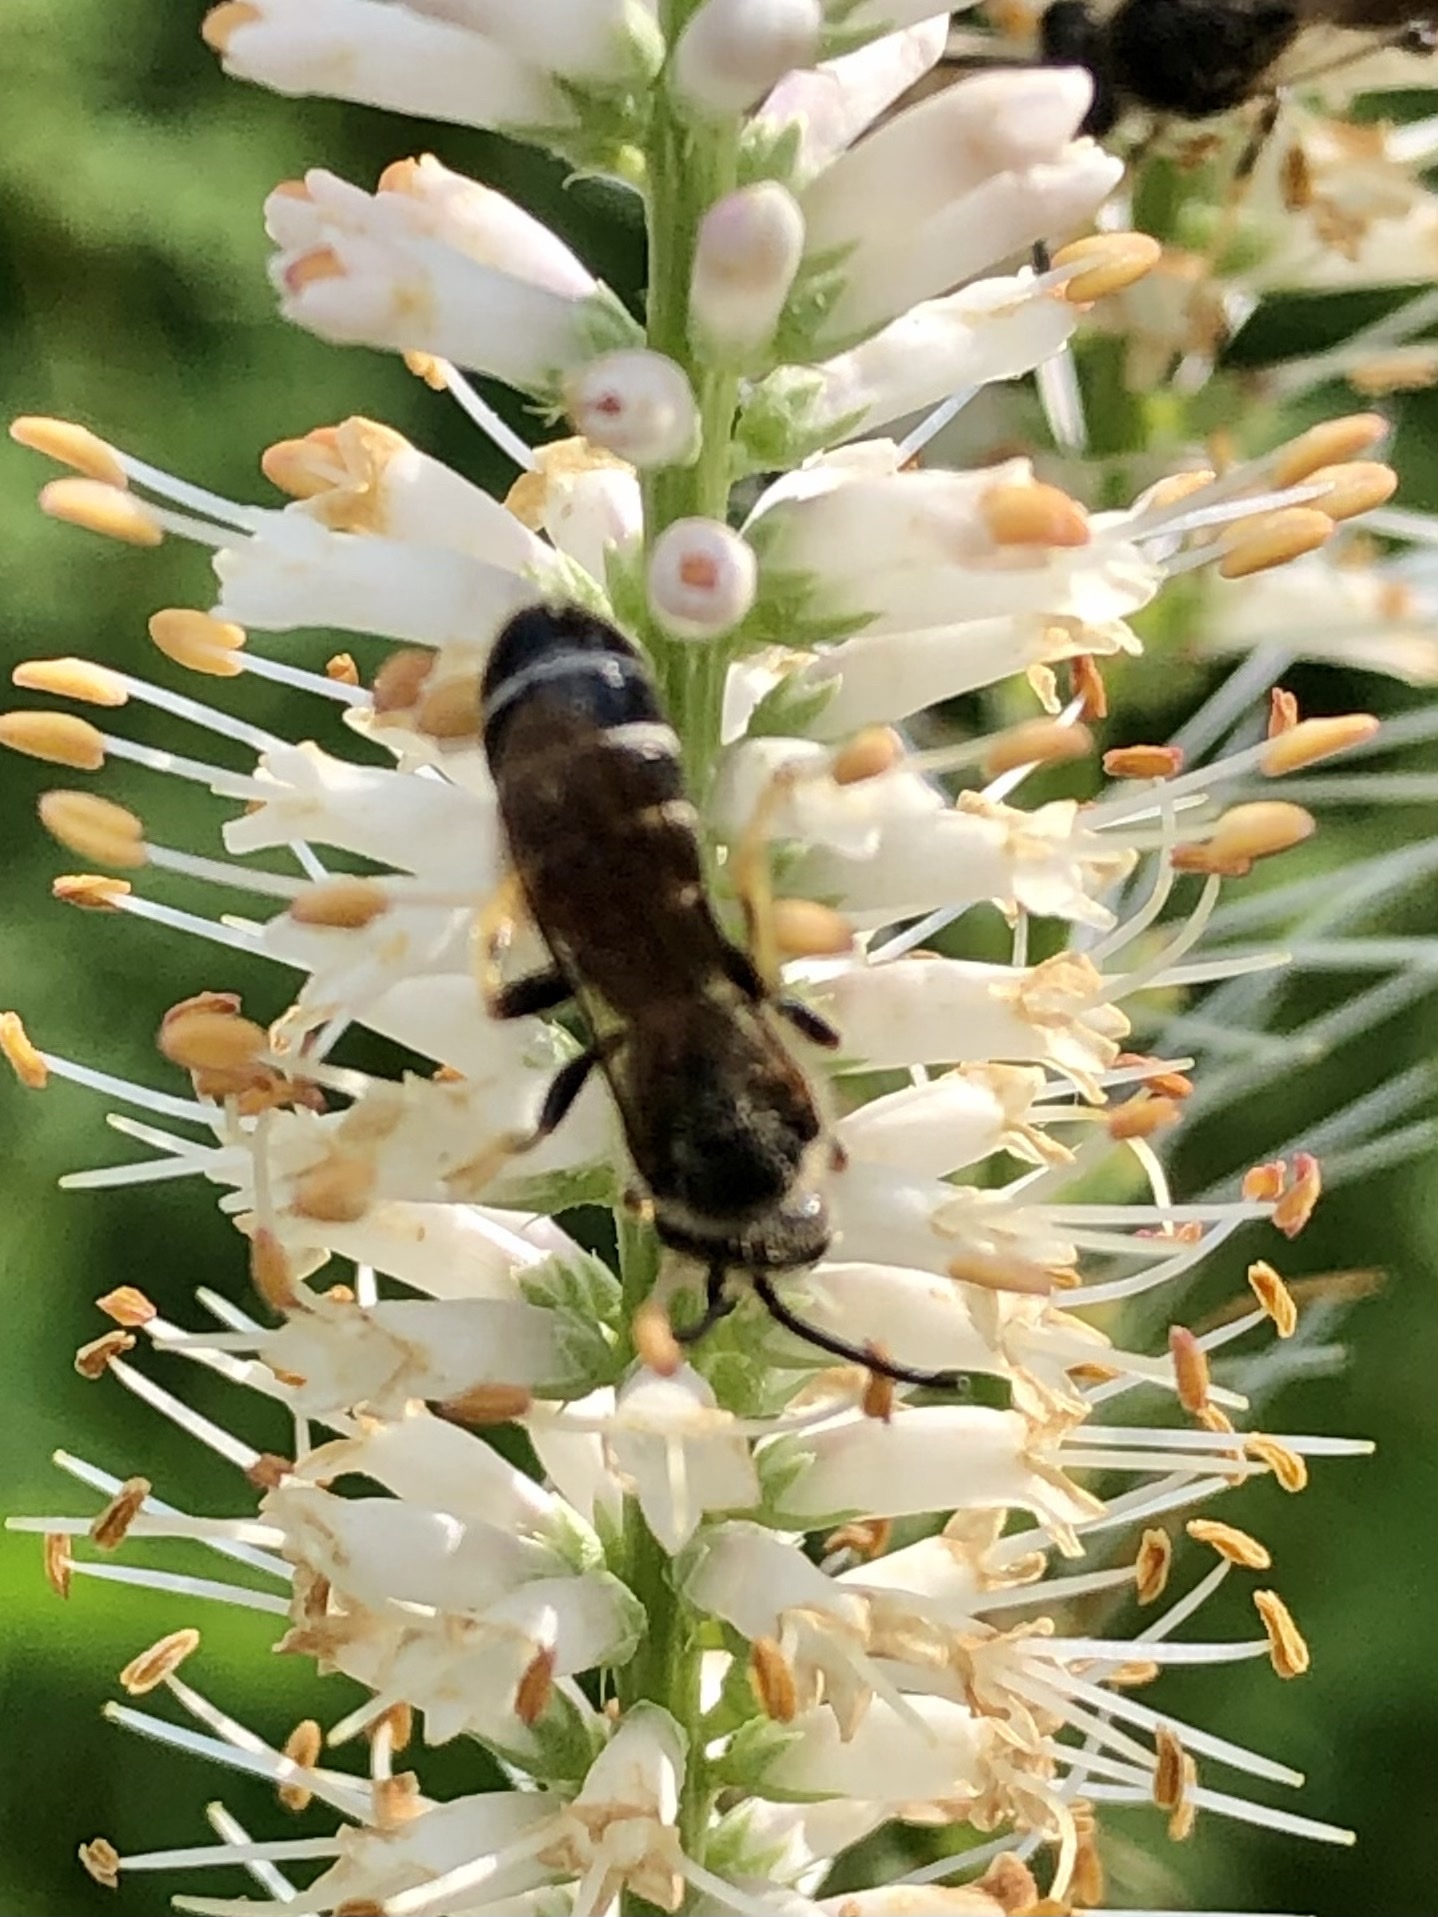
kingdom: Animalia
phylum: Arthropoda
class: Insecta
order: Hymenoptera
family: Halictidae
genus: Halictus
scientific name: Halictus rubicundus
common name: Orange-legged furrow bee
